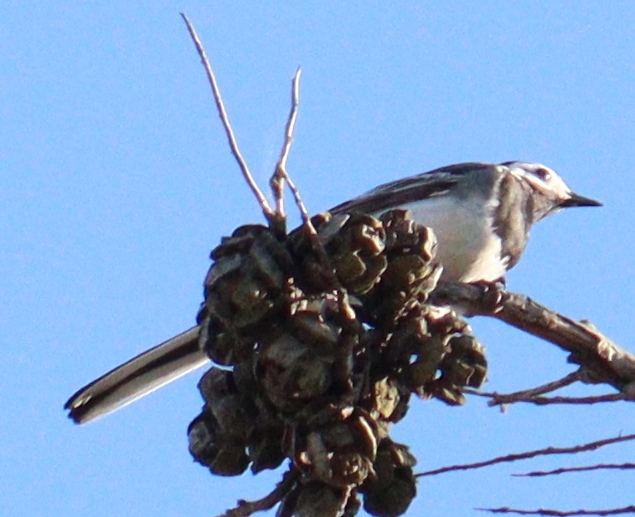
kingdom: Animalia
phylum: Chordata
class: Aves
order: Passeriformes
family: Motacillidae
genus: Motacilla
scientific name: Motacilla alba
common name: White wagtail
